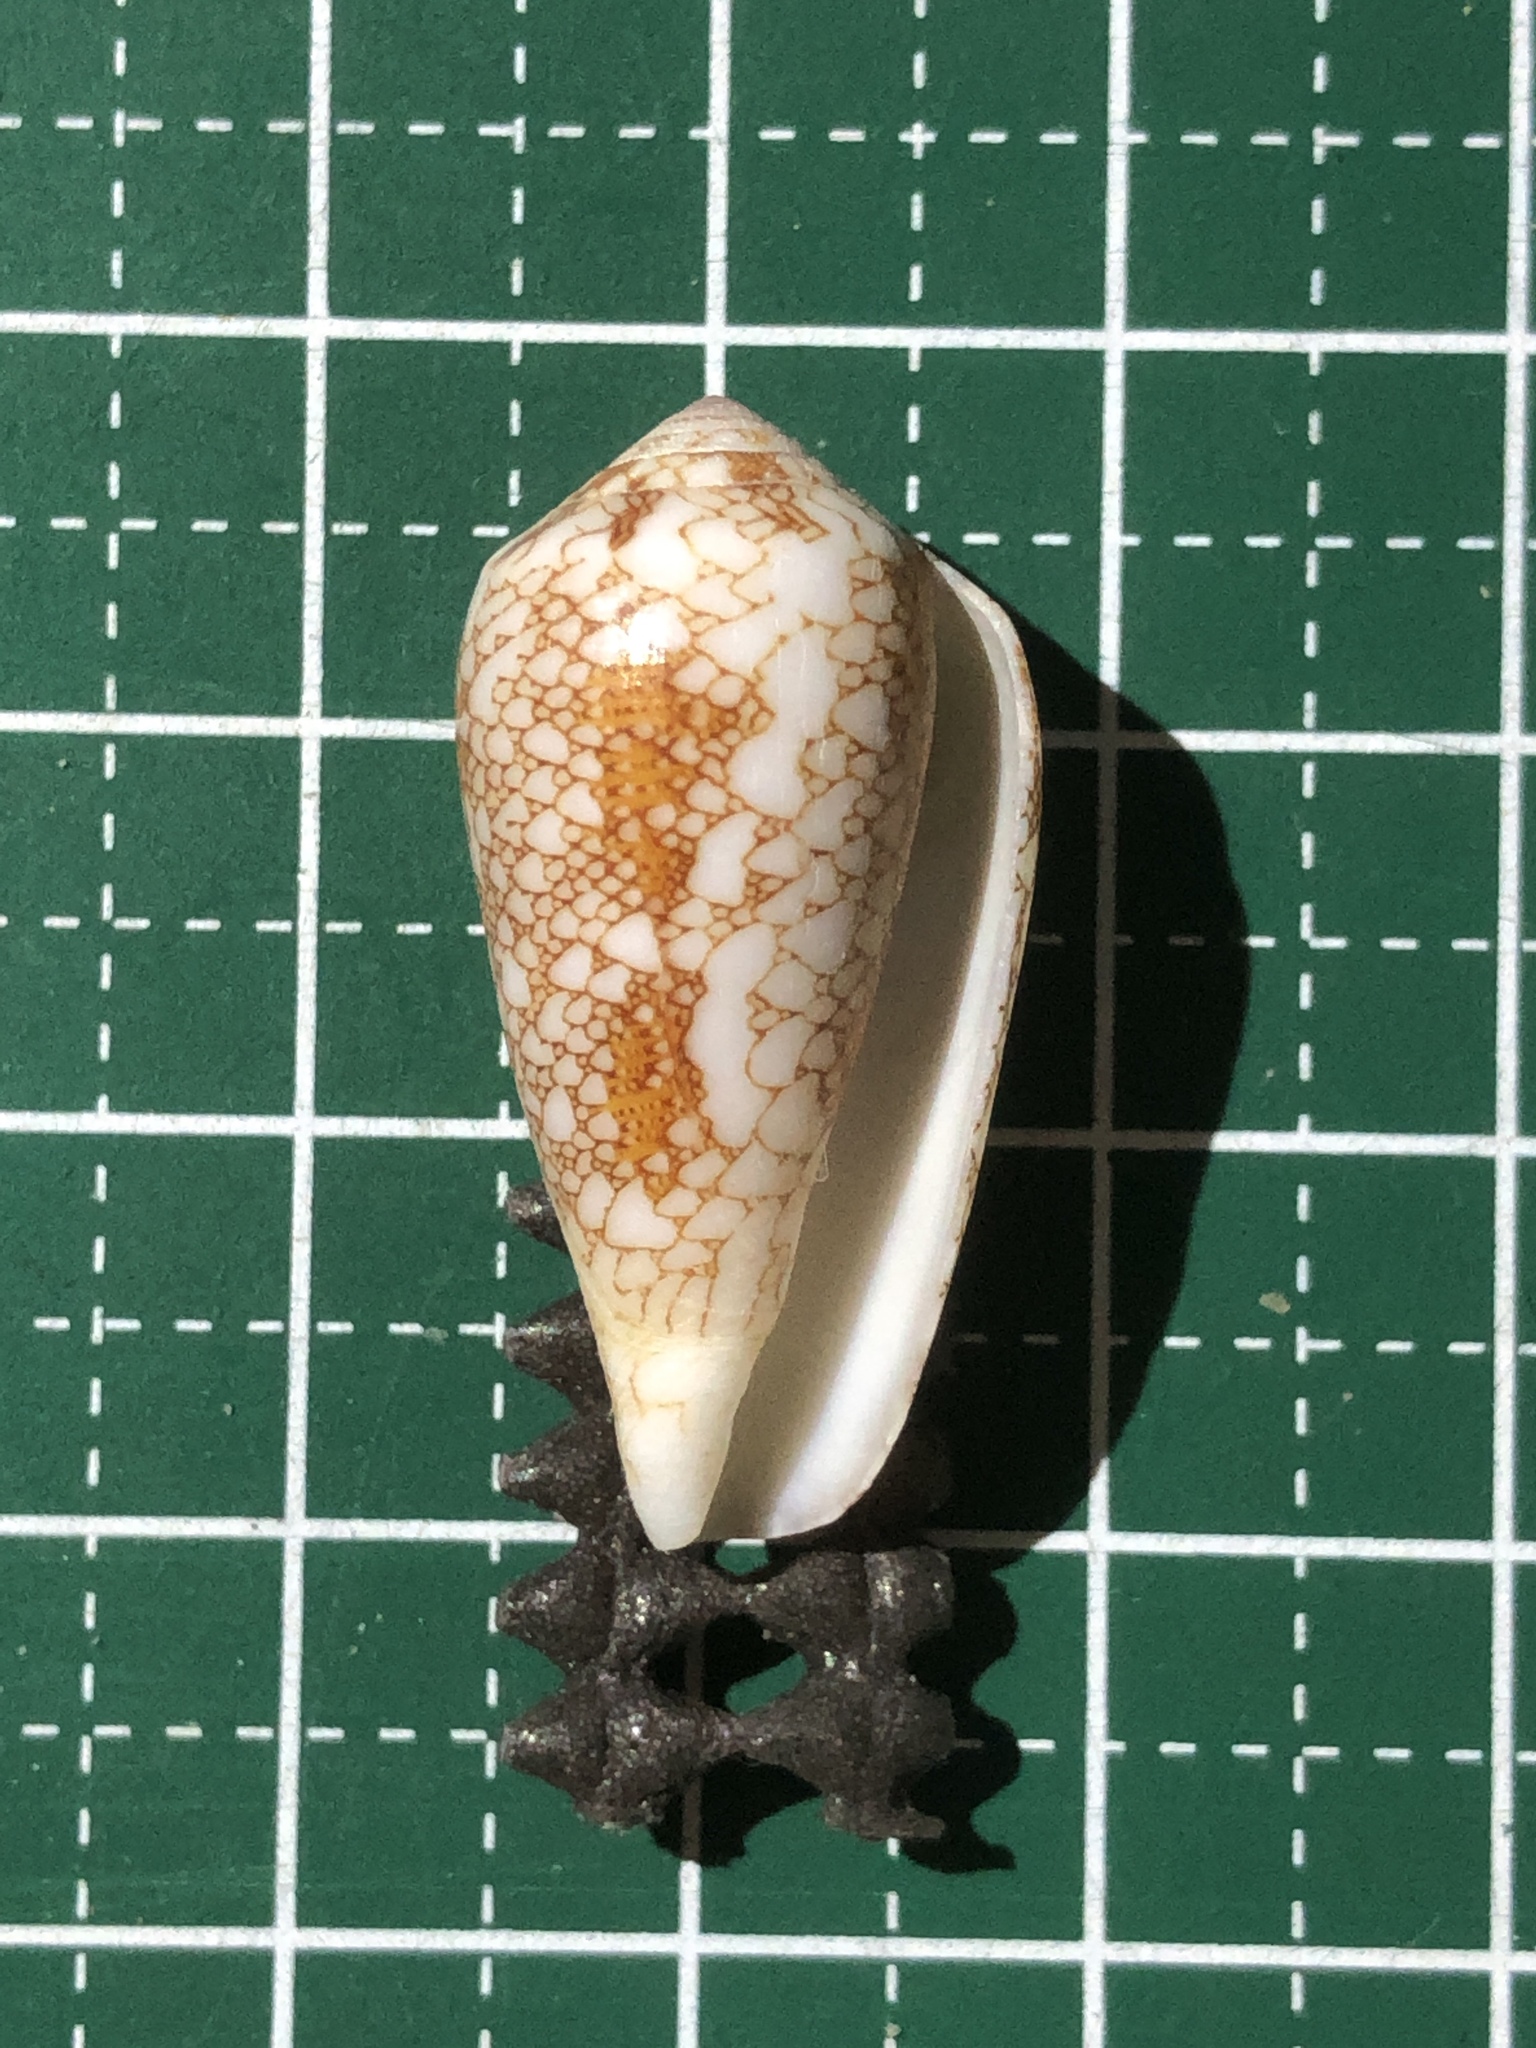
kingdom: Animalia
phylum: Mollusca
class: Gastropoda
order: Neogastropoda
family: Conidae
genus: Conus
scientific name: Conus omaria
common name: Omaria cone
